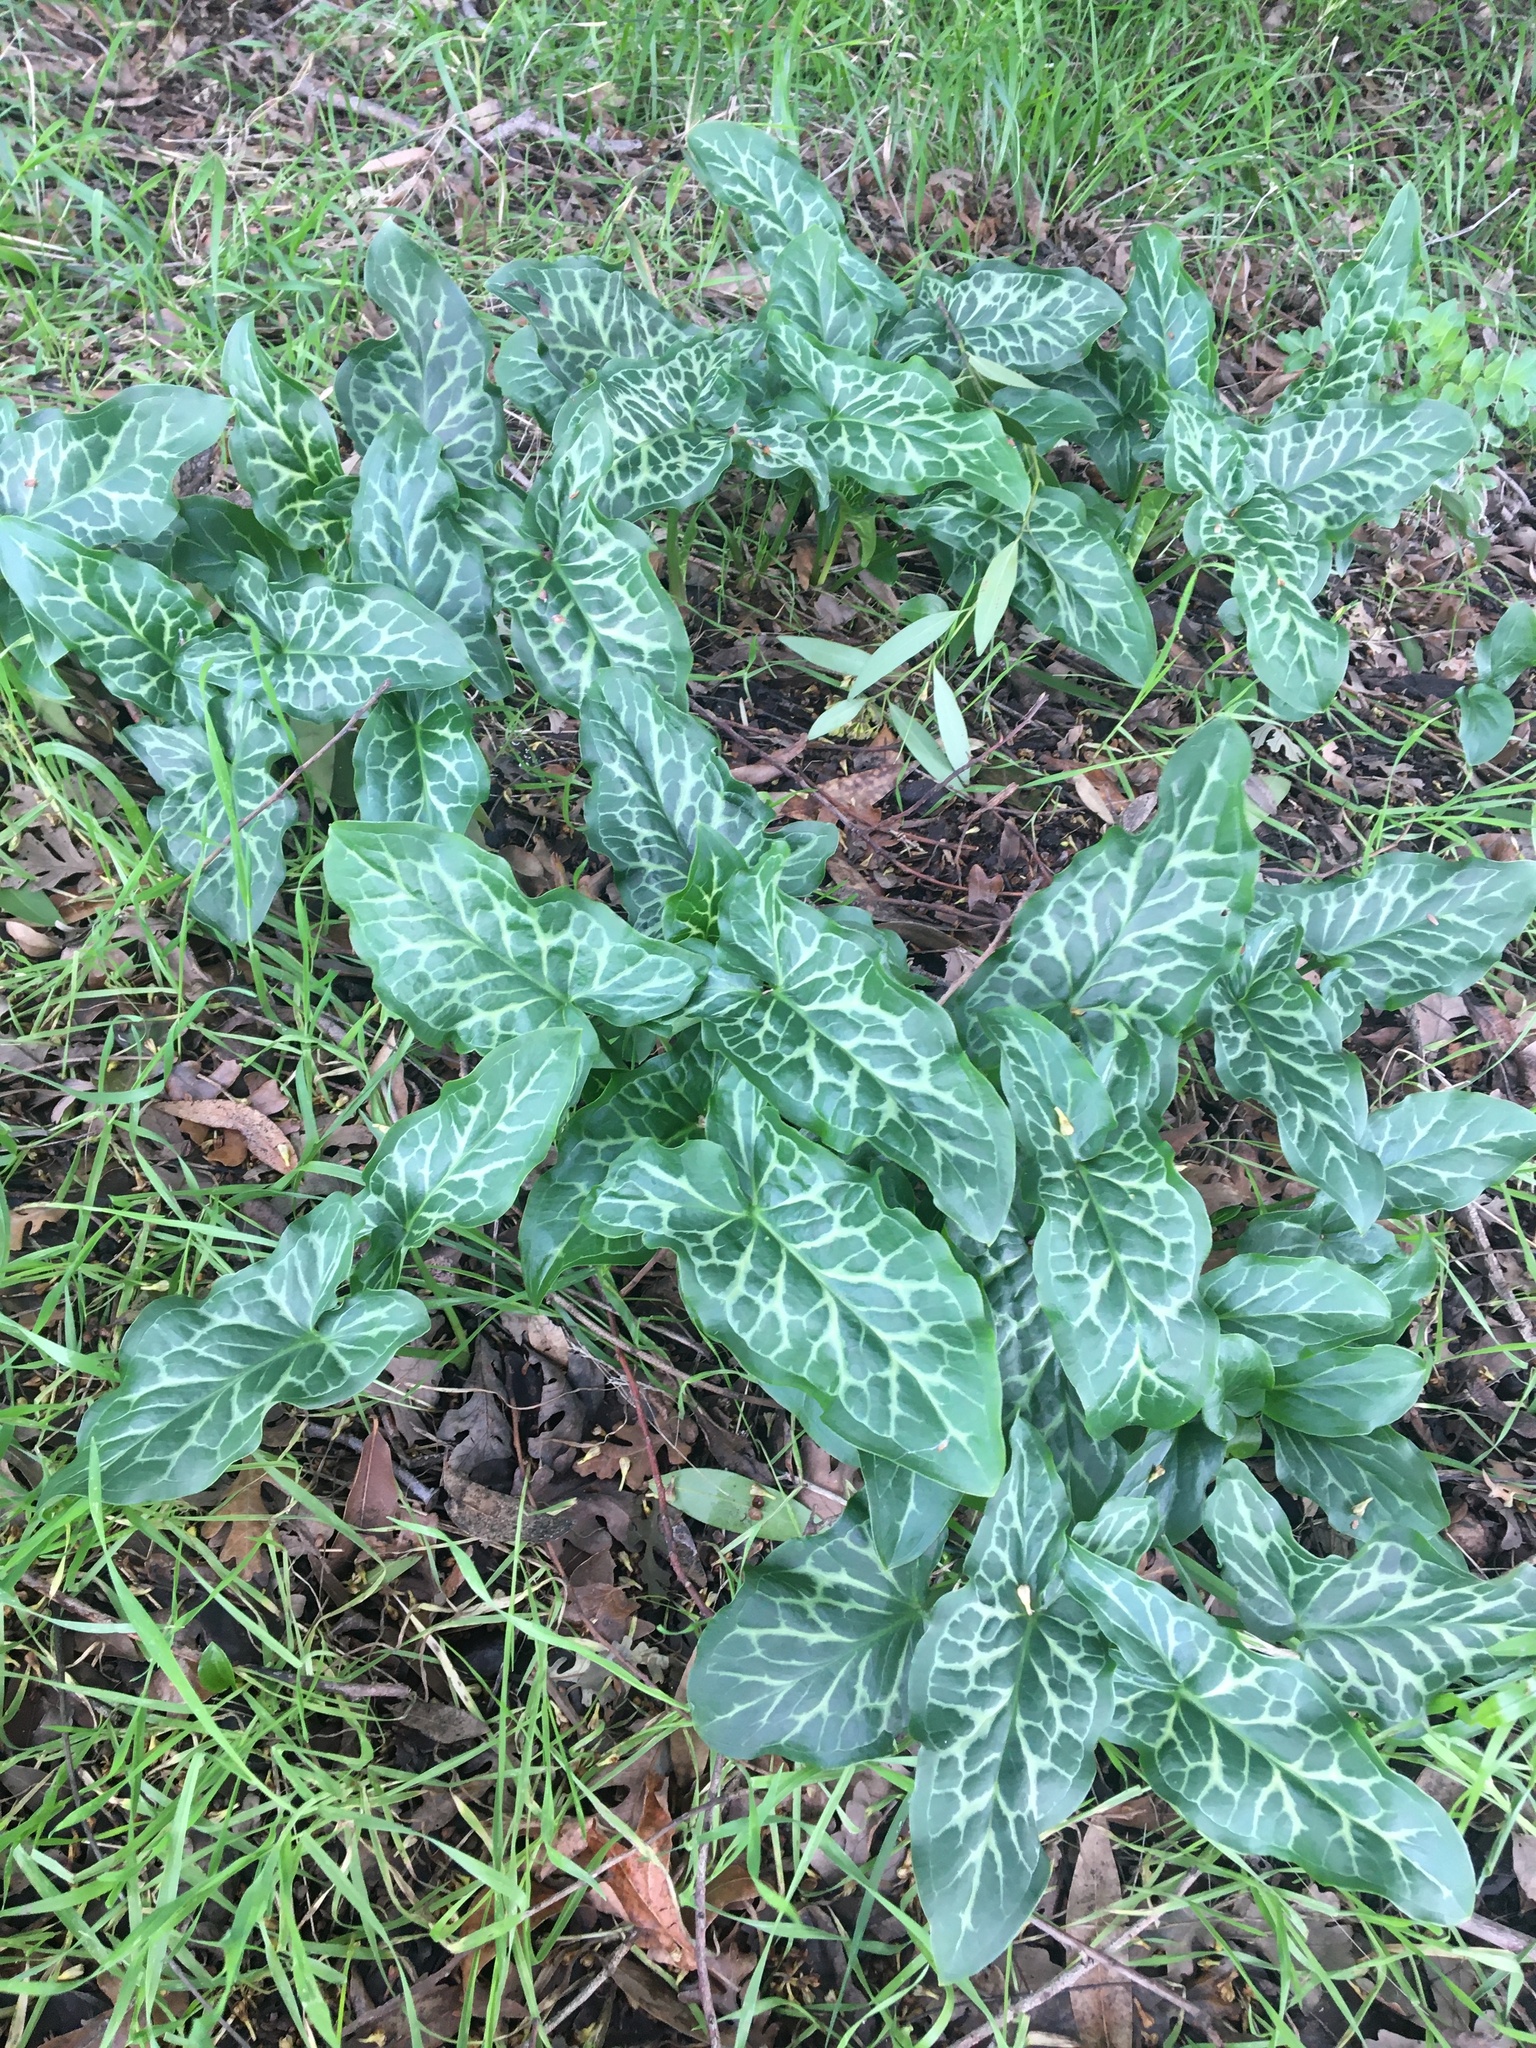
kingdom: Plantae
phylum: Tracheophyta
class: Liliopsida
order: Alismatales
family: Araceae
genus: Arum
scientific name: Arum italicum
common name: Italian lords-and-ladies
